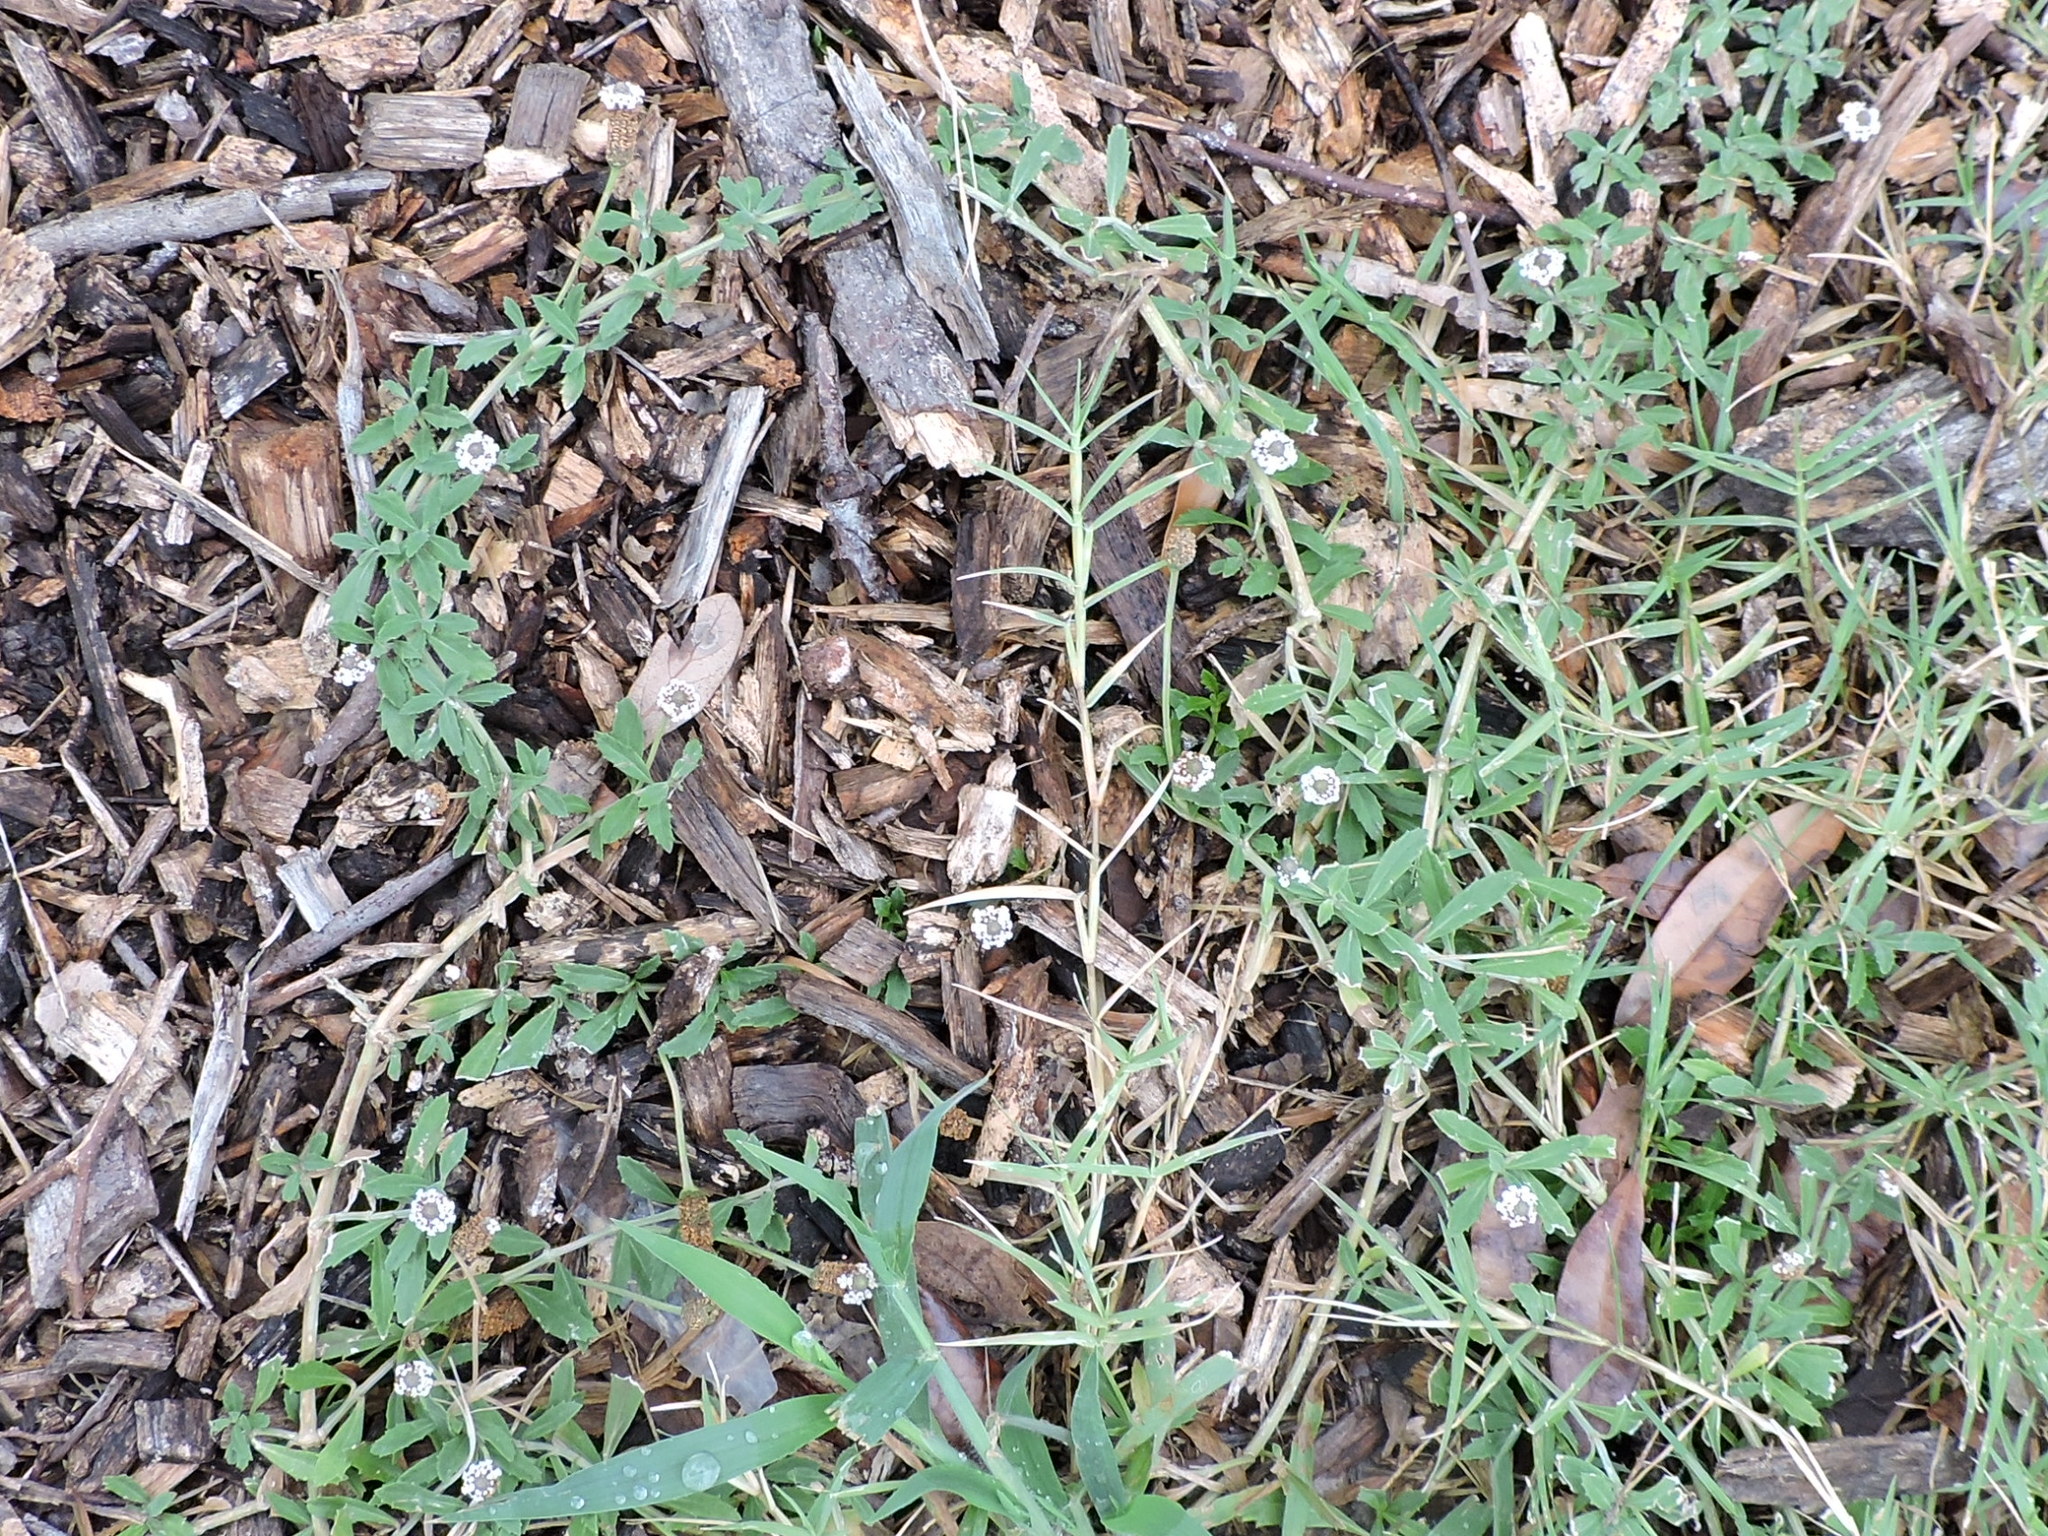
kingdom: Plantae
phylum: Tracheophyta
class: Magnoliopsida
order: Lamiales
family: Verbenaceae
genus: Phyla
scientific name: Phyla nodiflora
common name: Frogfruit
